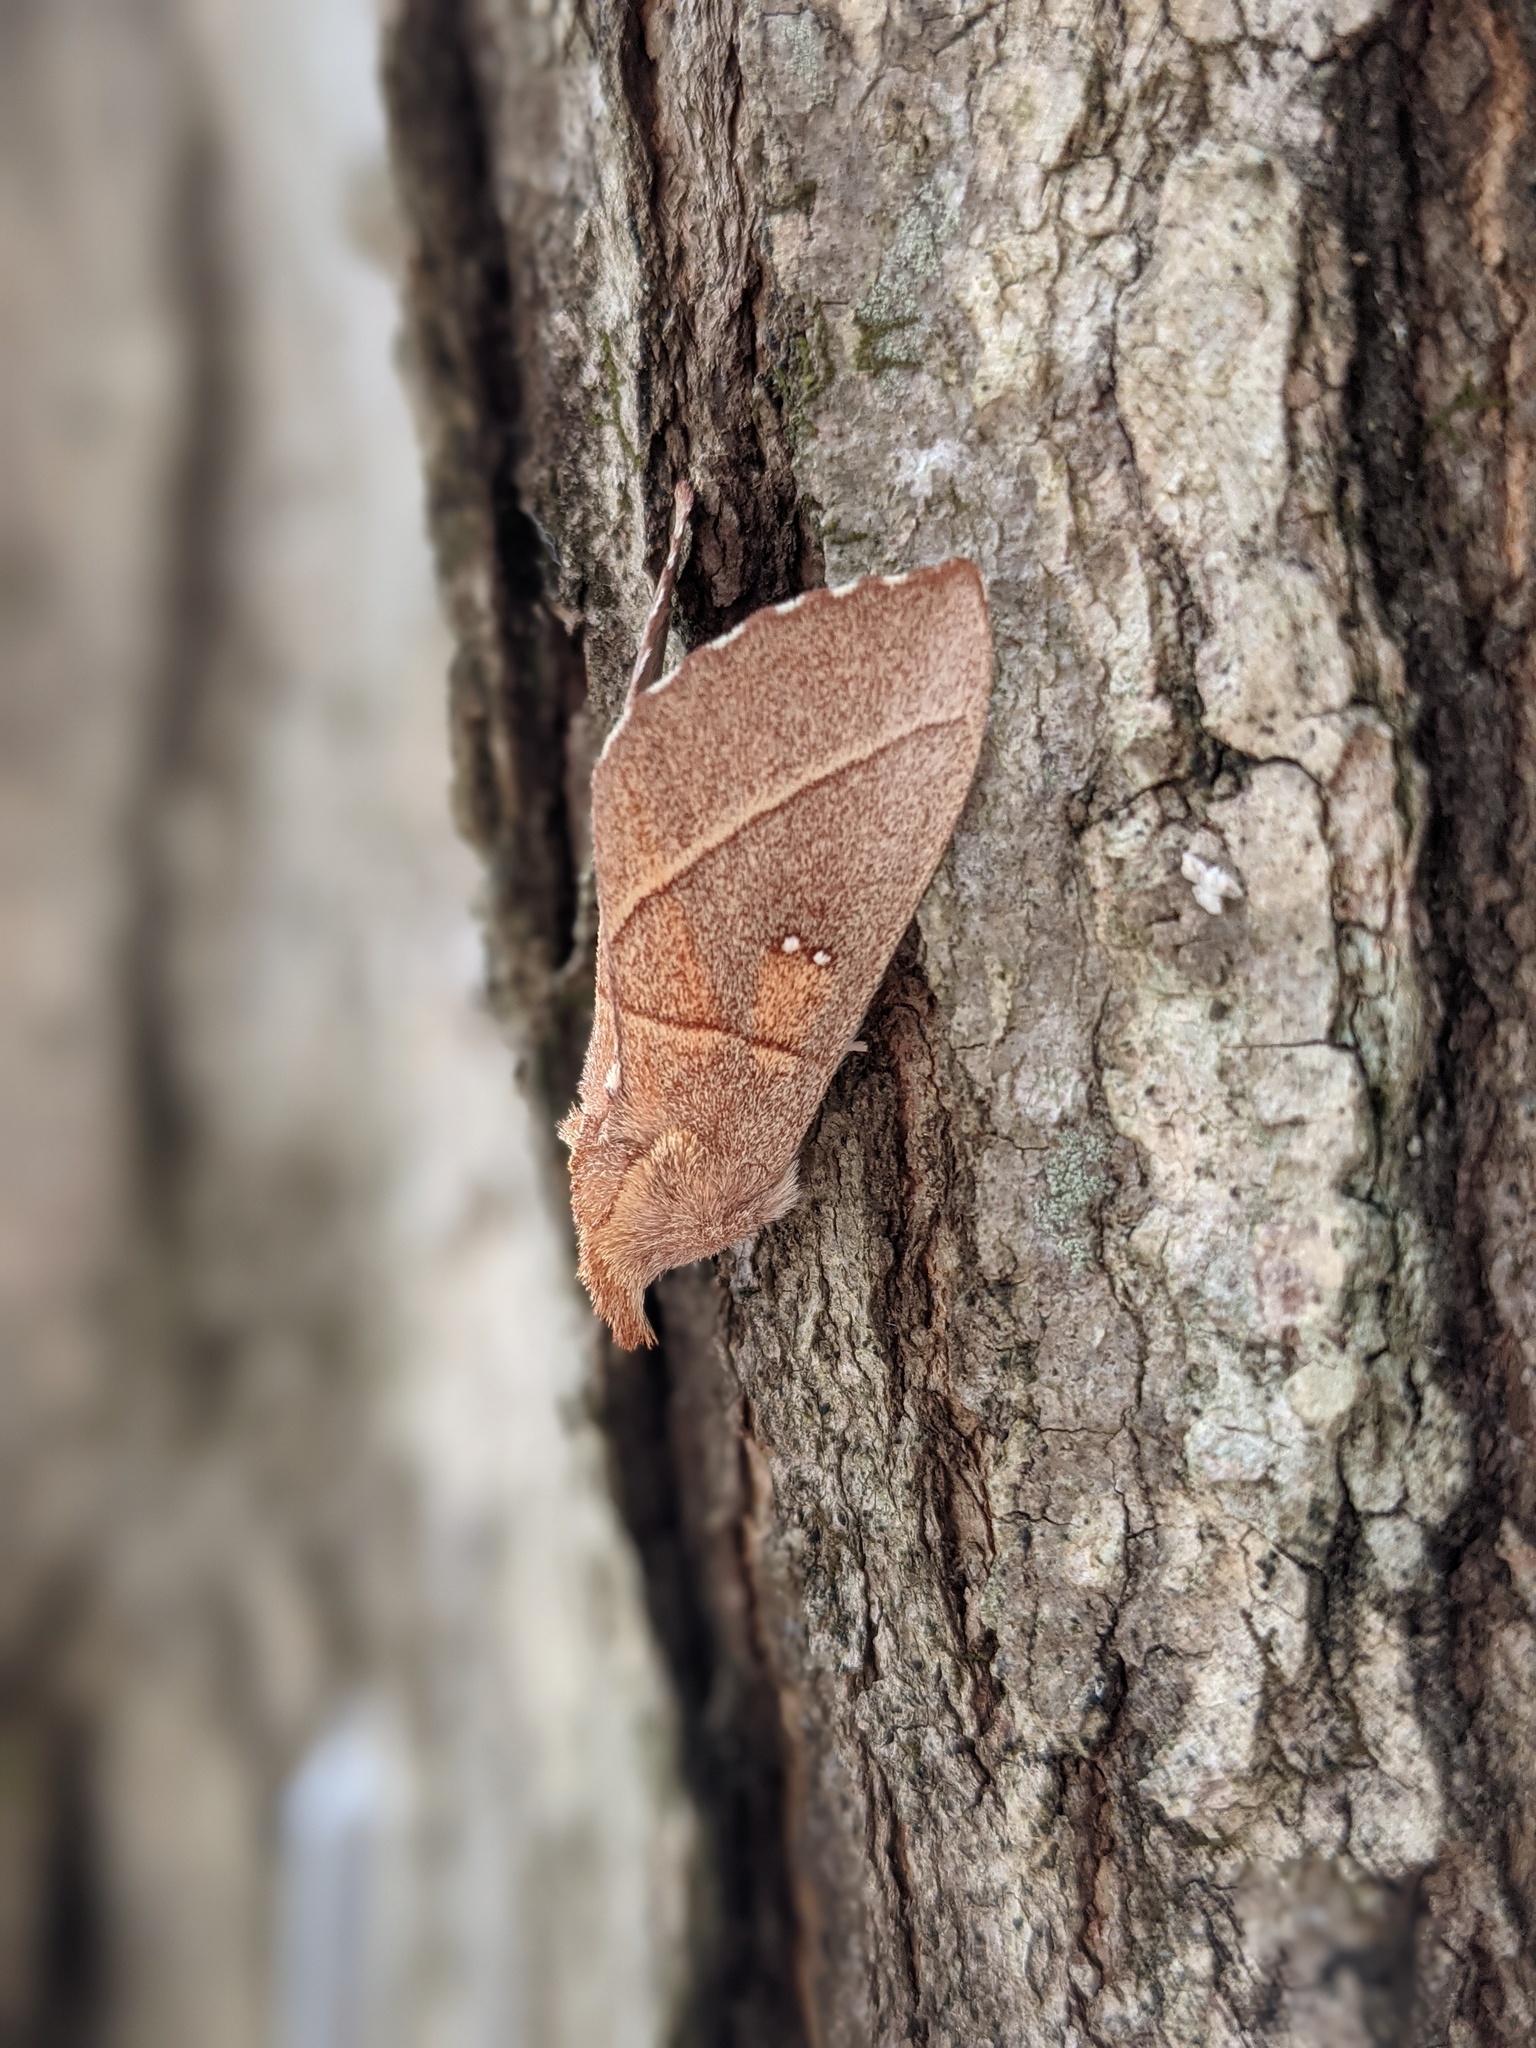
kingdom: Animalia
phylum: Arthropoda
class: Insecta
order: Lepidoptera
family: Notodontidae
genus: Nadata
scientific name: Nadata gibbosa
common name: White-dotted prominent
